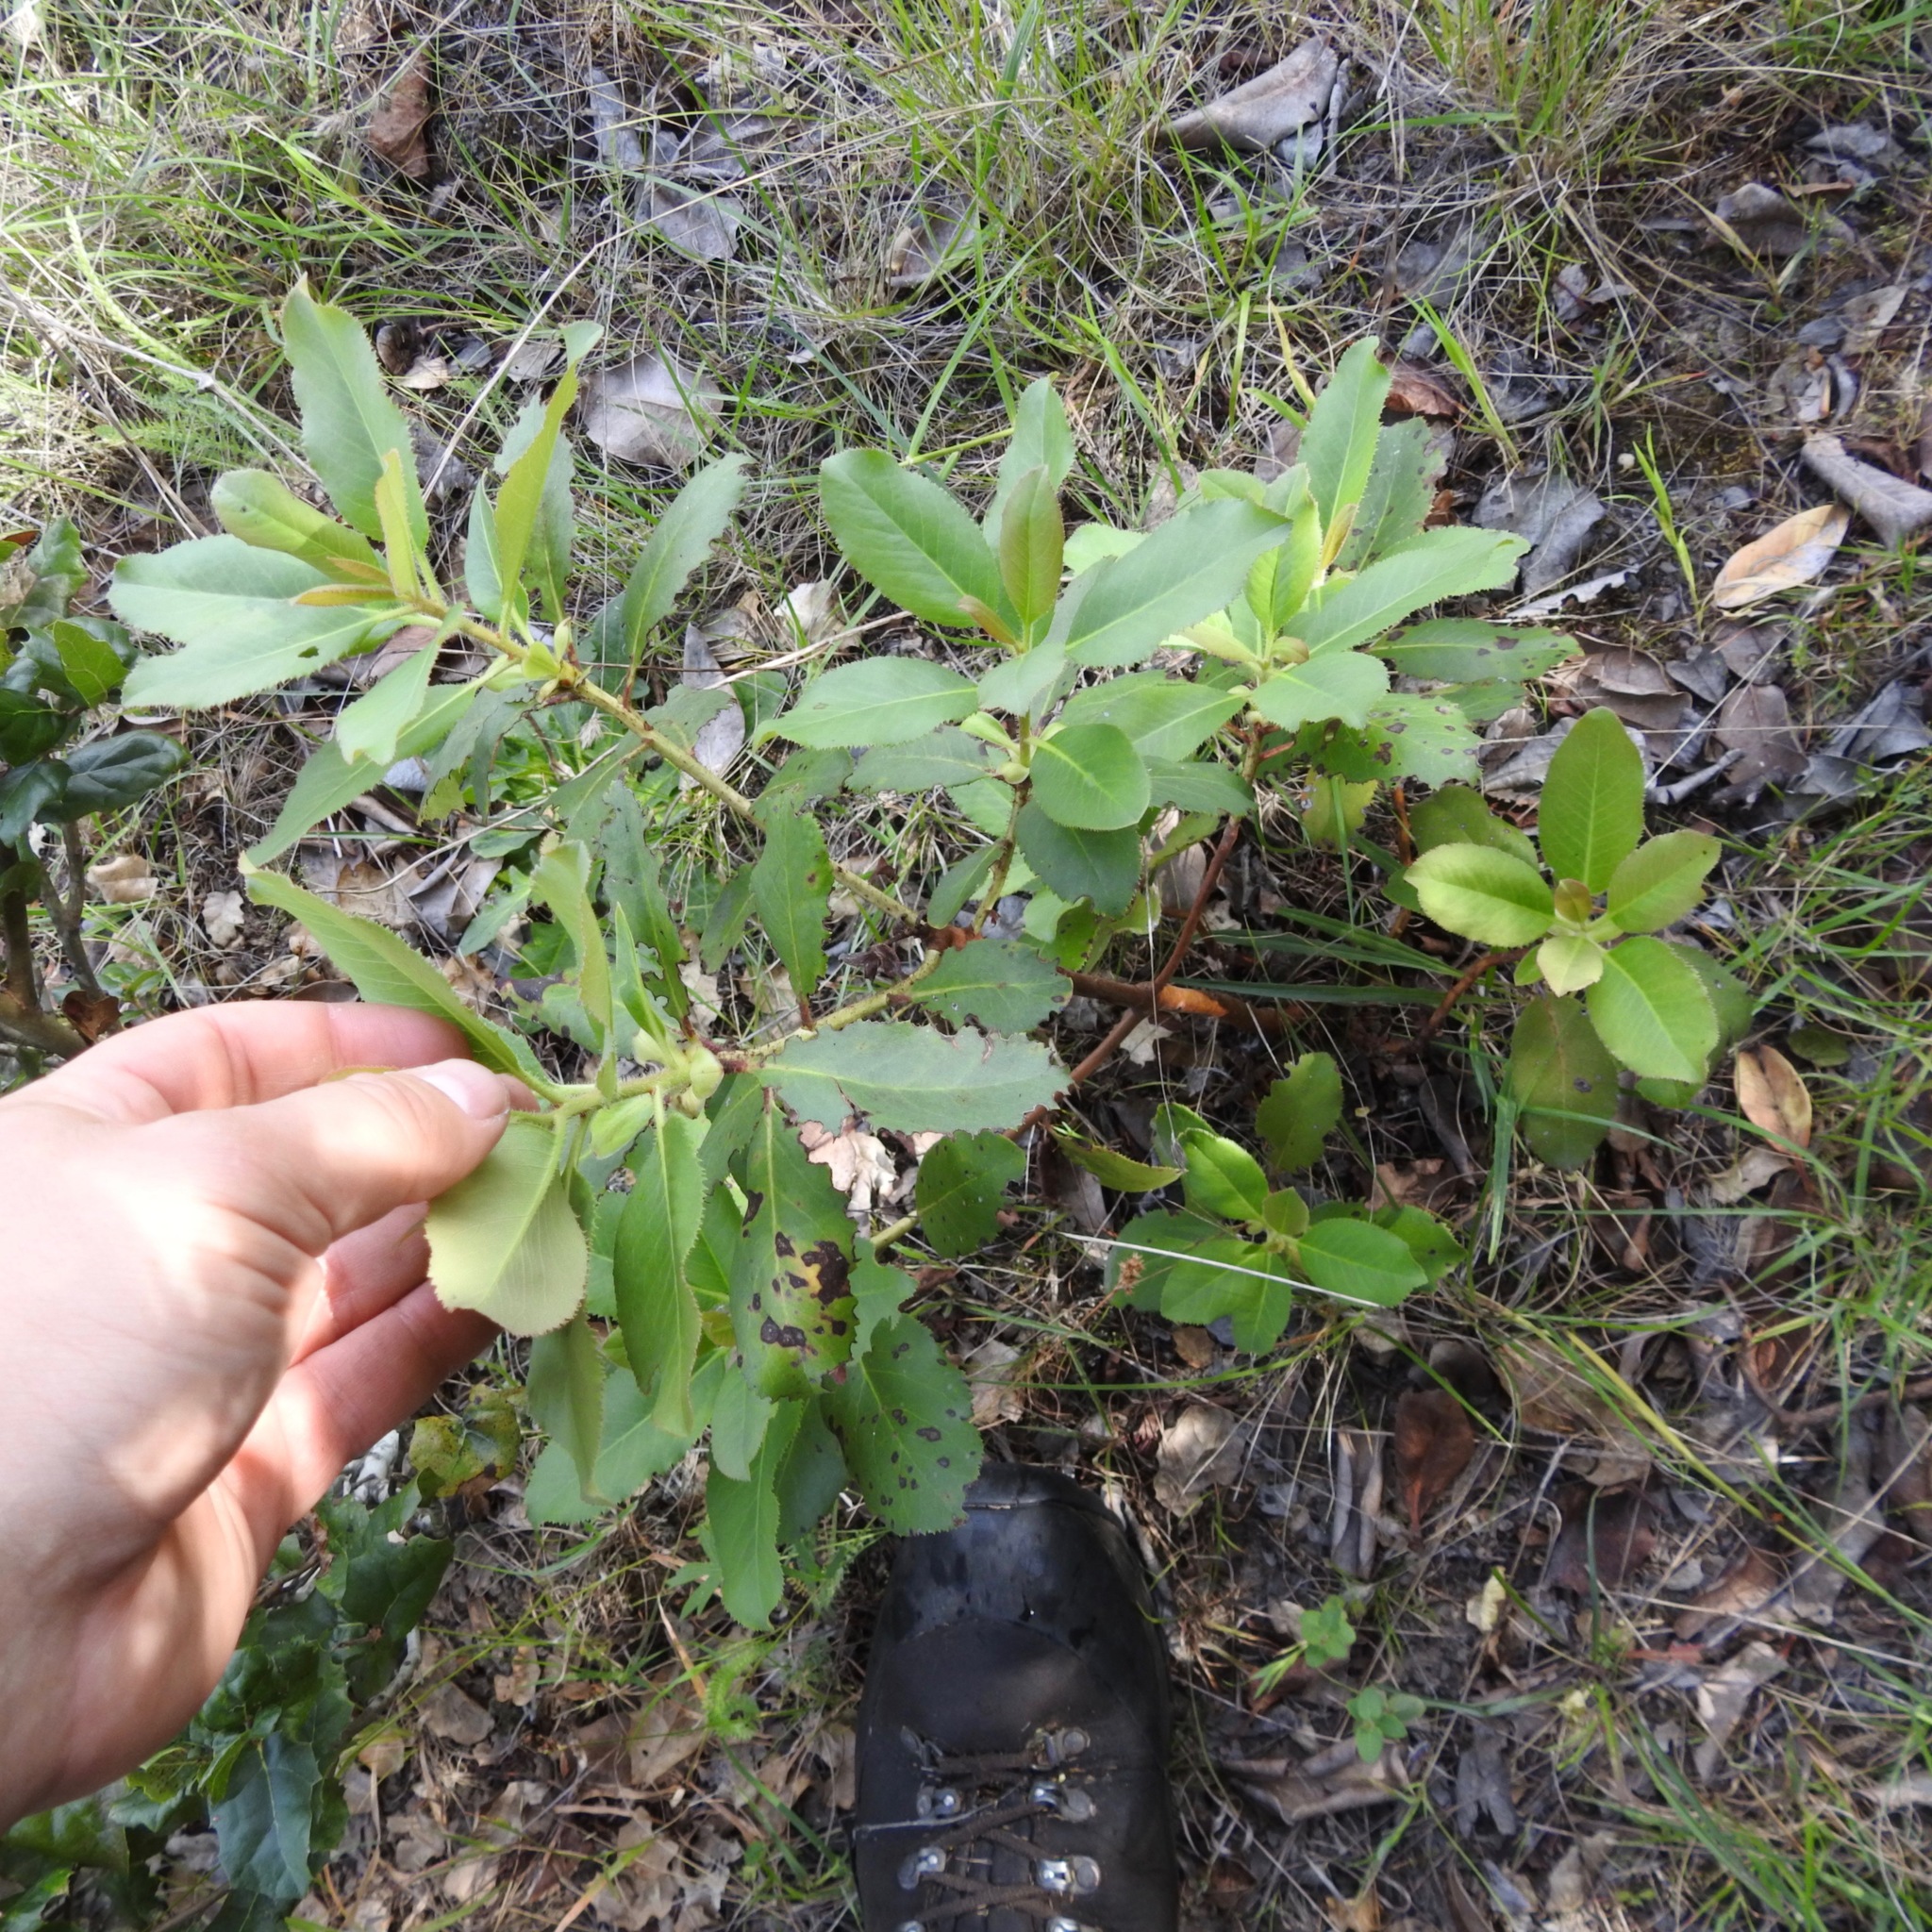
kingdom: Plantae
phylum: Tracheophyta
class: Magnoliopsida
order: Rosales
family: Rosaceae
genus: Heteromeles
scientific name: Heteromeles arbutifolia
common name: California-holly
